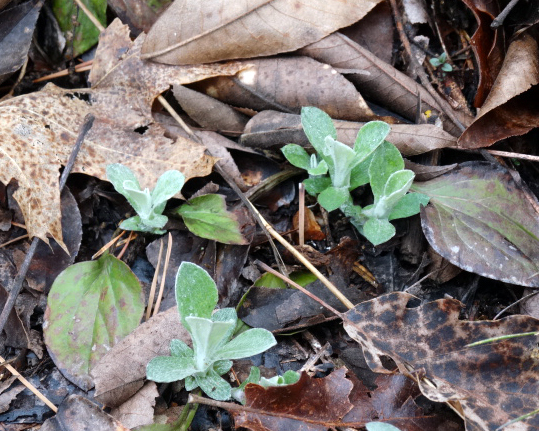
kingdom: Plantae
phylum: Tracheophyta
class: Magnoliopsida
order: Asterales
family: Asteraceae
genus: Antennaria
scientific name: Antennaria parlinii
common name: Parlin's pussytoes
